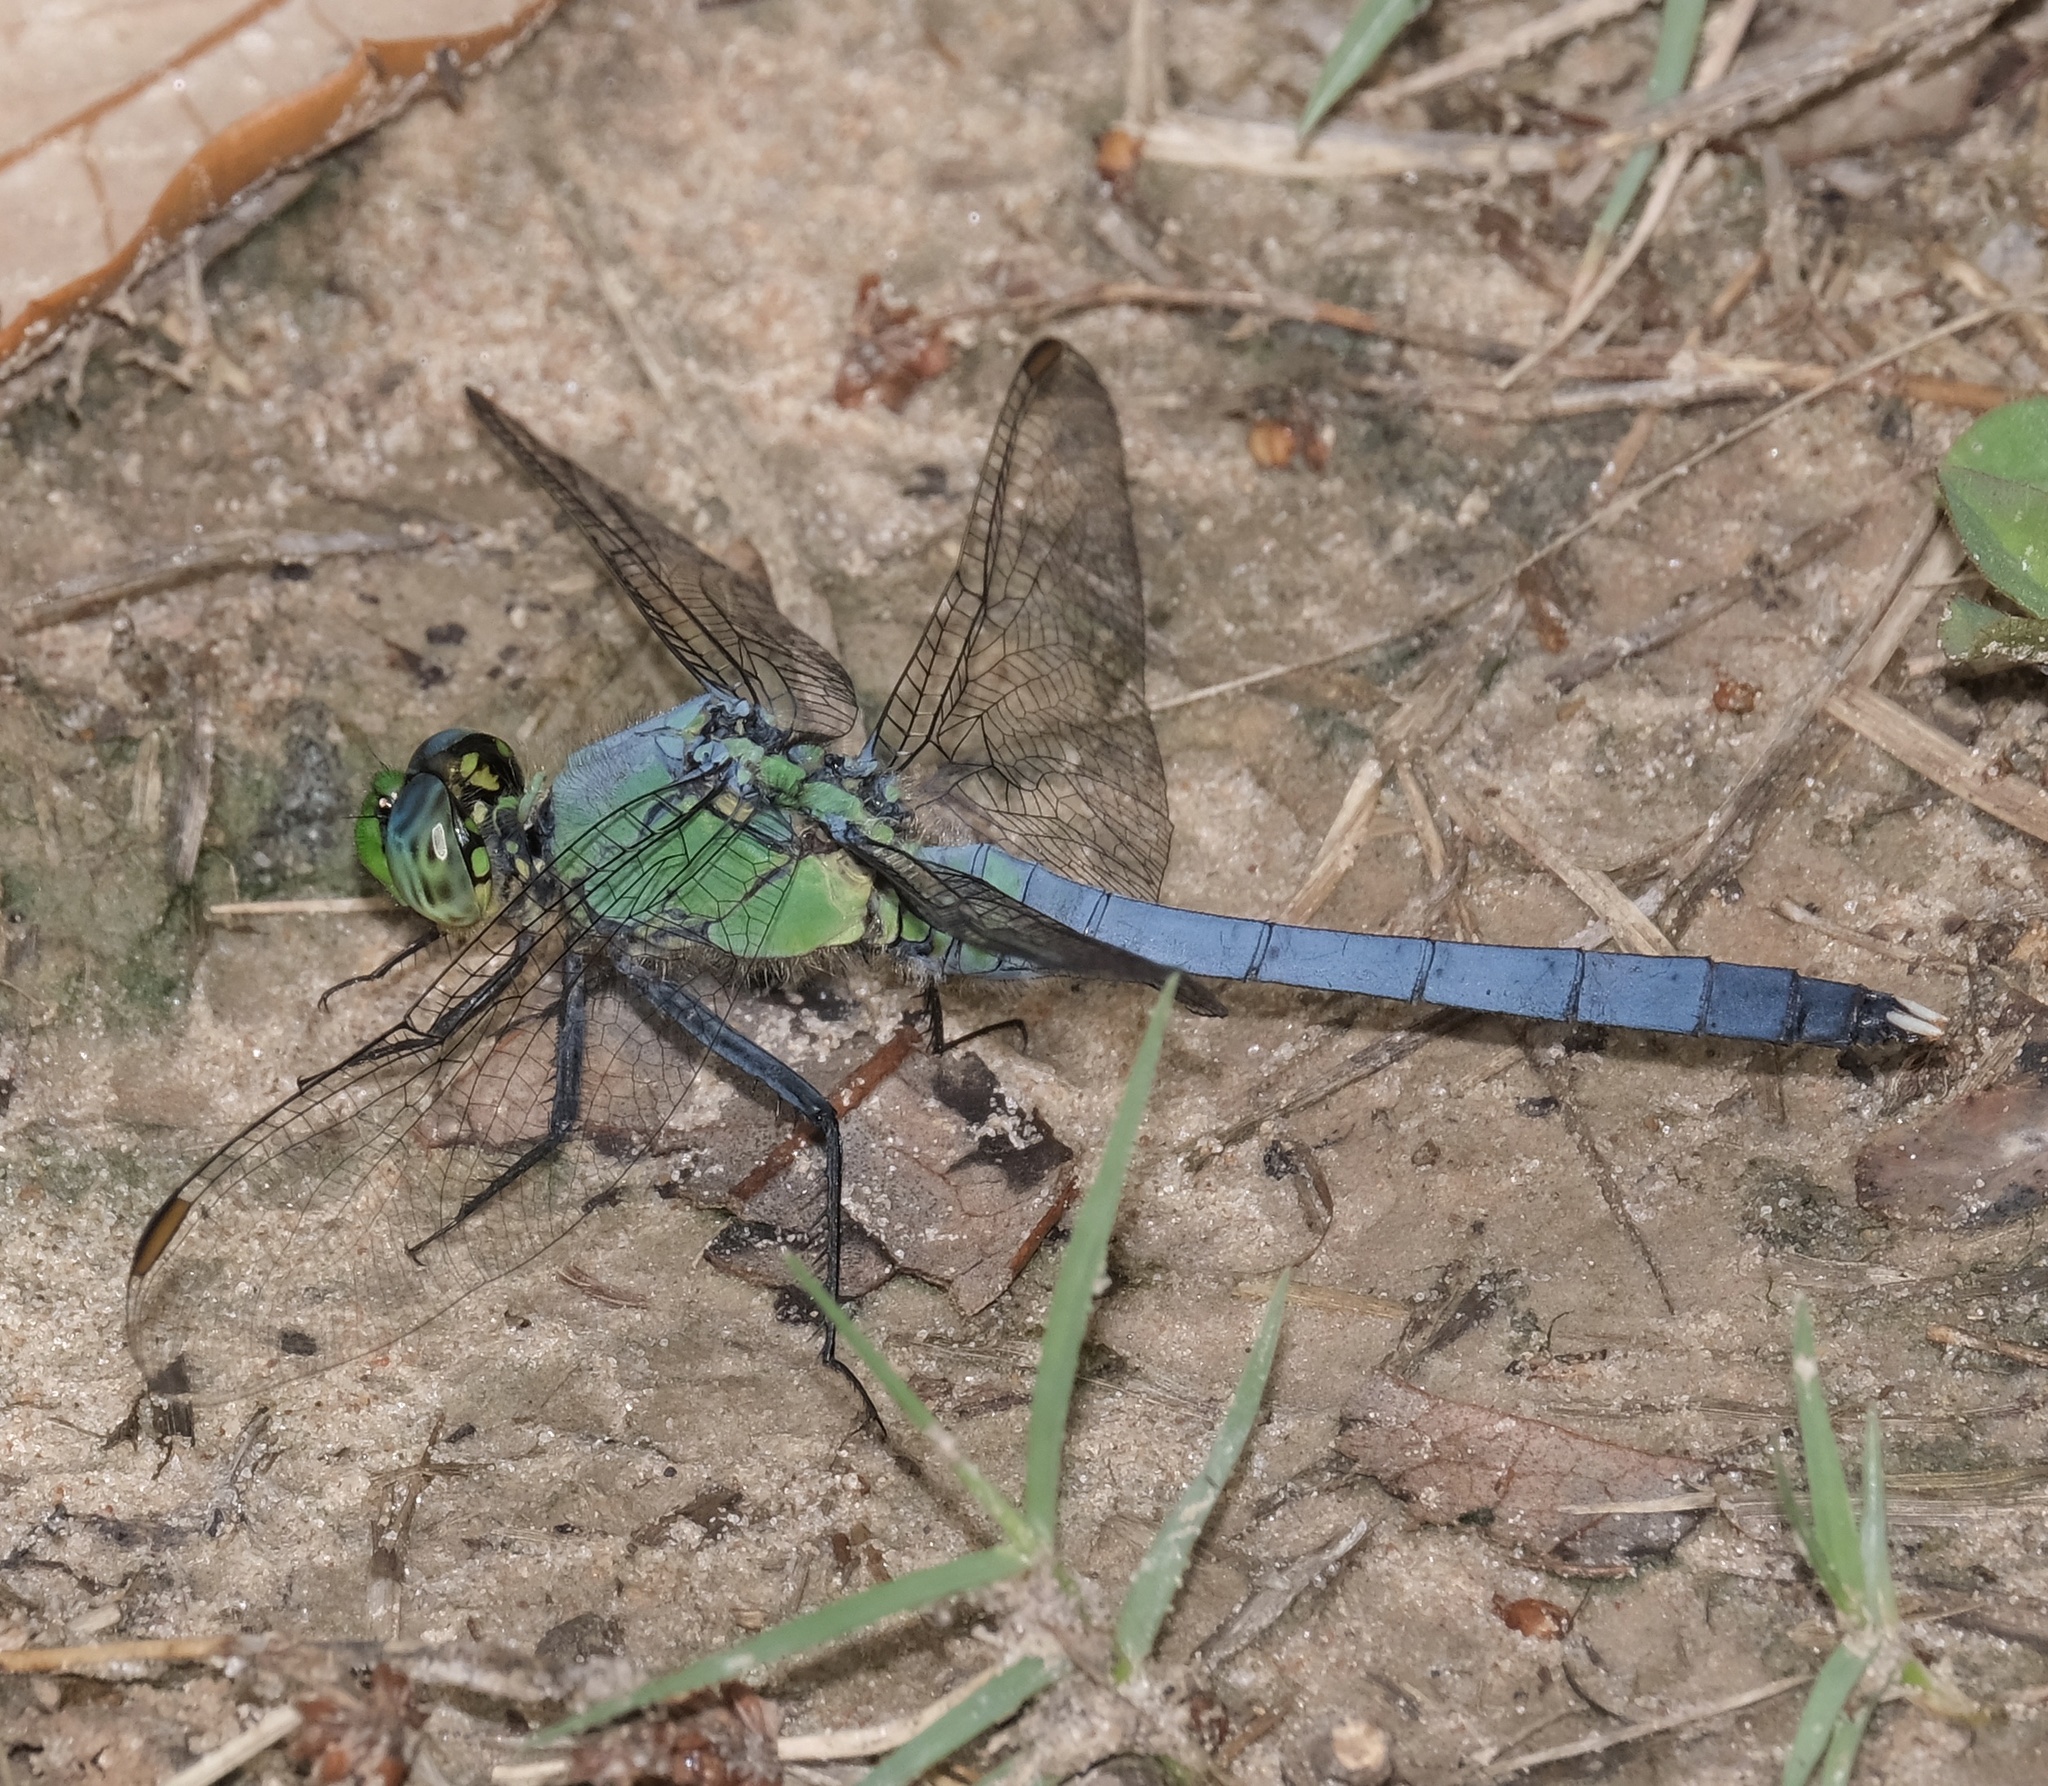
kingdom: Animalia
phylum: Arthropoda
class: Insecta
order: Odonata
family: Libellulidae
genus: Erythemis
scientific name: Erythemis simplicicollis
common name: Eastern pondhawk
